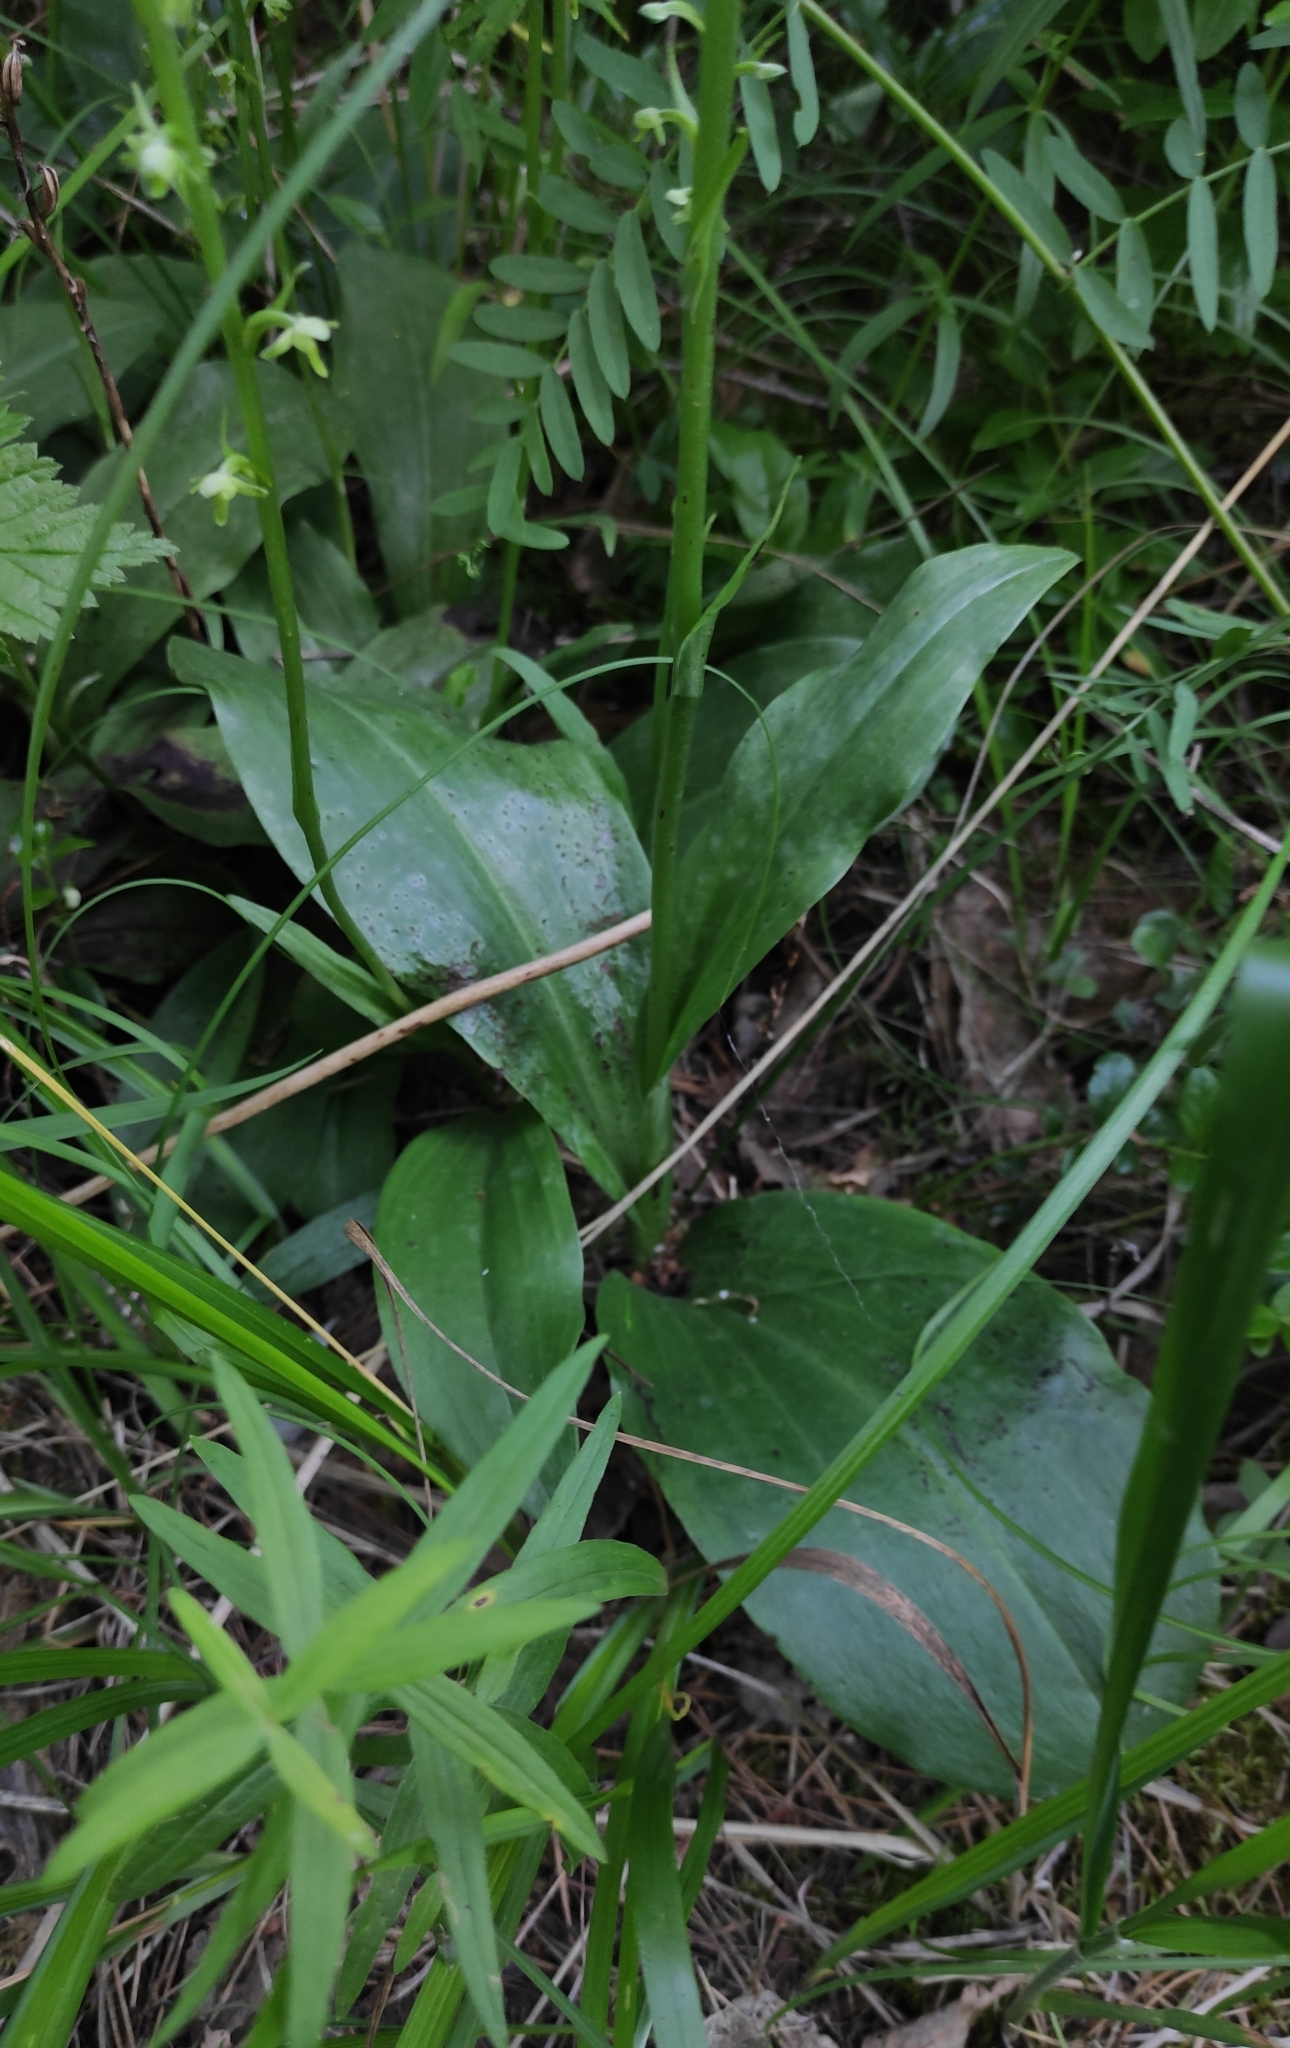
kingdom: Plantae
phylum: Tracheophyta
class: Liliopsida
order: Asparagales
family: Orchidaceae
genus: Platanthera
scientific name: Platanthera fuscescens
